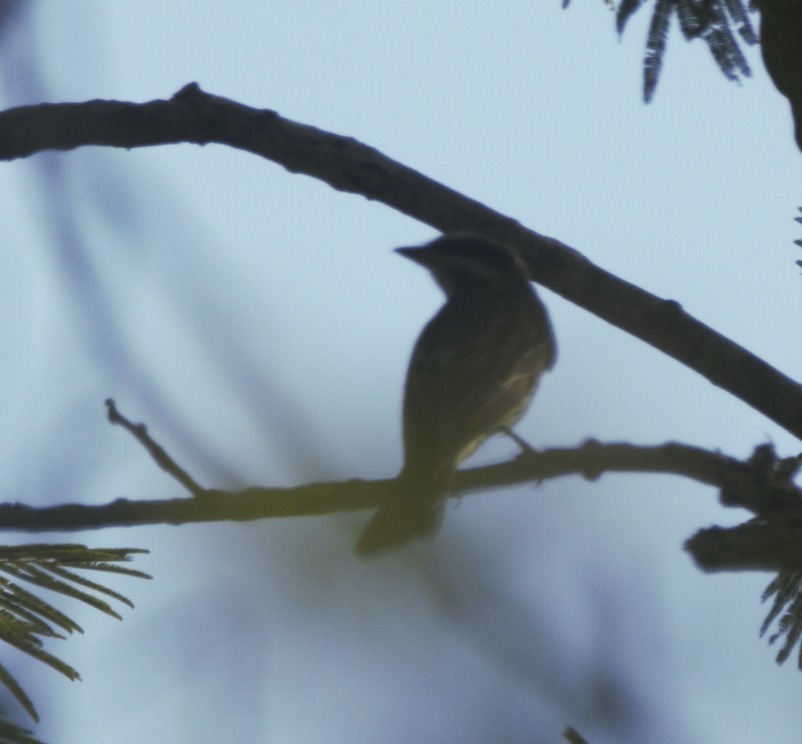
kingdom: Animalia
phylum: Chordata
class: Aves
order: Passeriformes
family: Tyrannidae
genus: Empidonomus
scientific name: Empidonomus varius
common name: Variegated flycatcher
